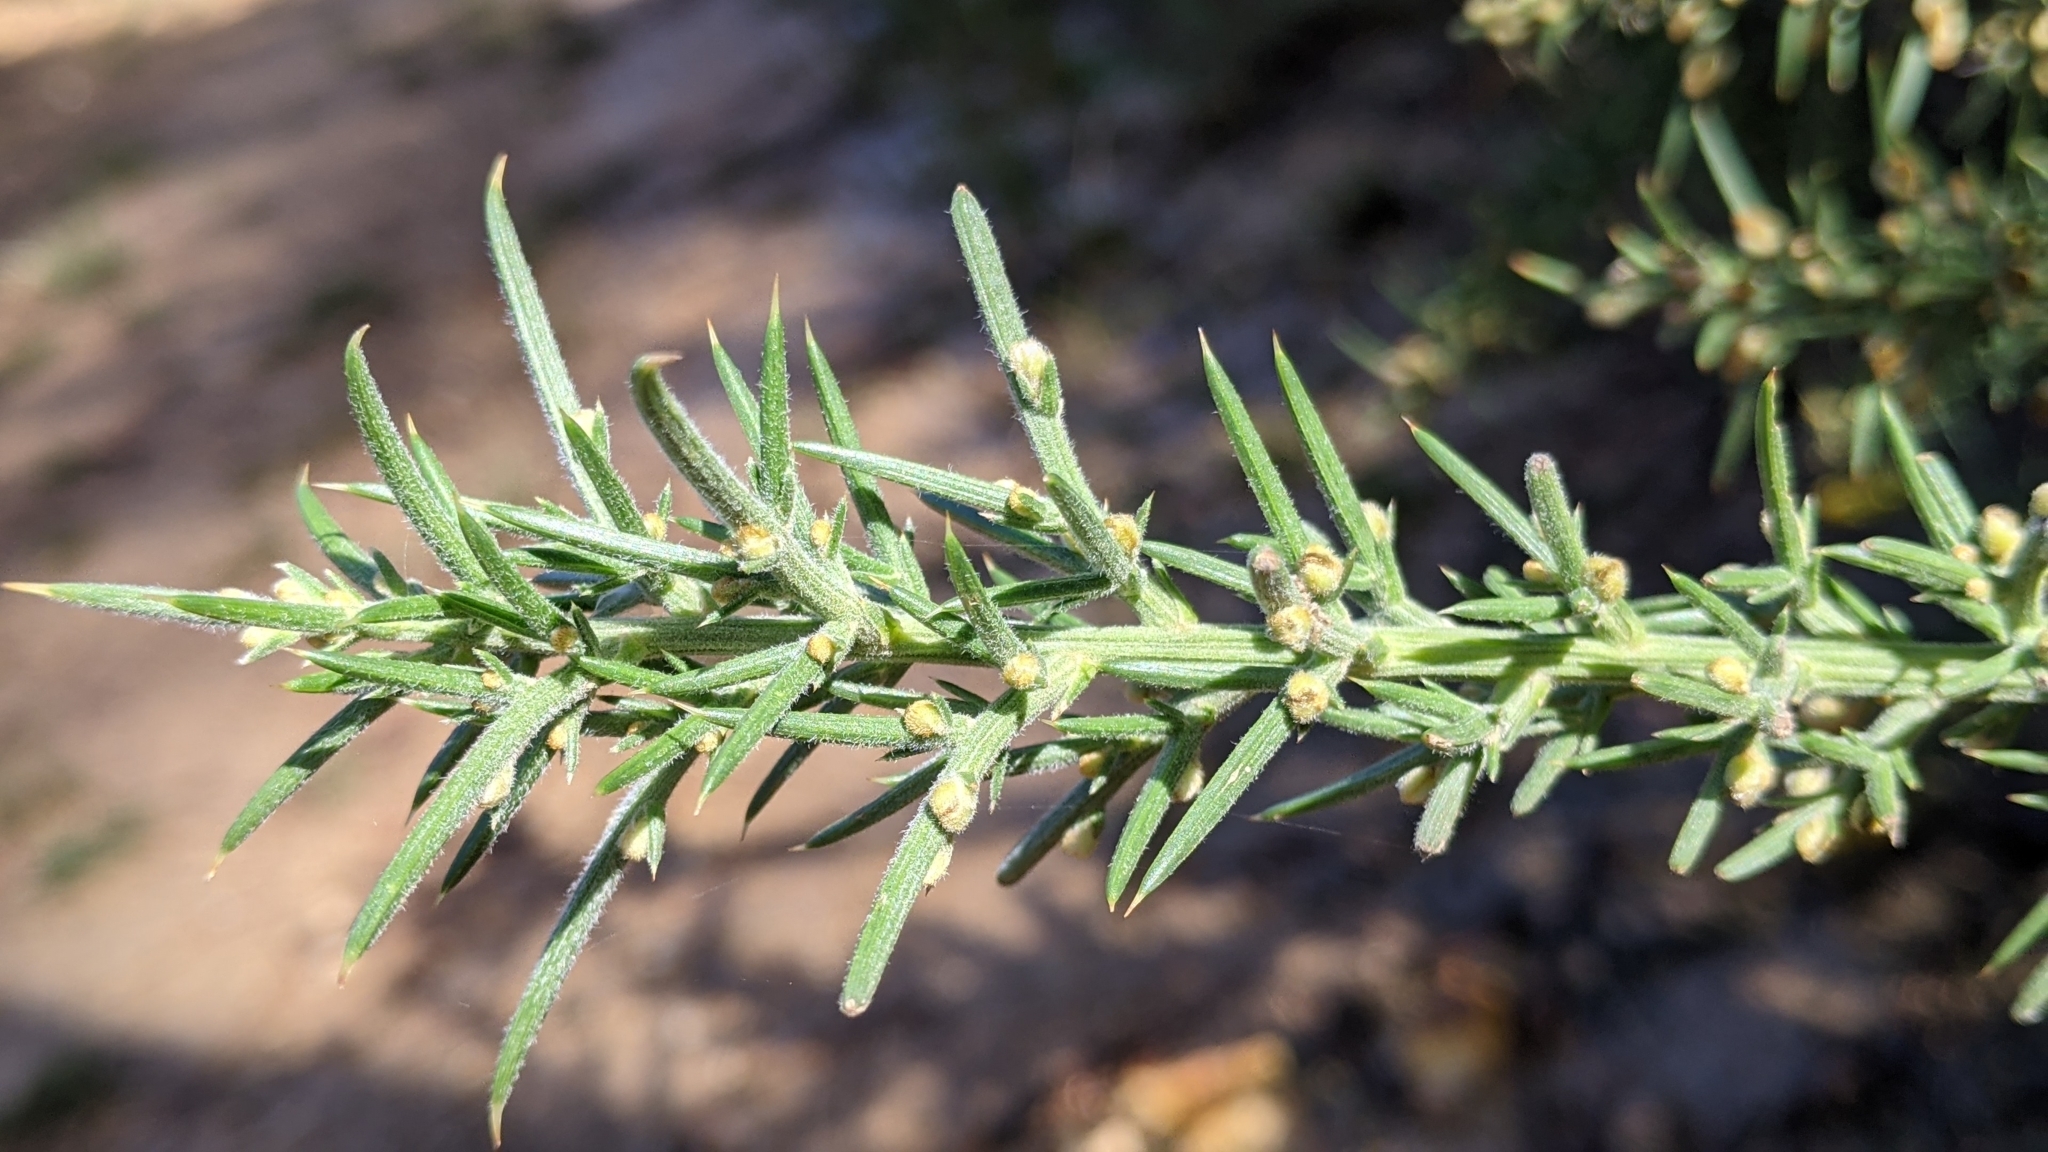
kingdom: Plantae
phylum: Tracheophyta
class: Magnoliopsida
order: Fabales
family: Fabaceae
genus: Ulex
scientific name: Ulex europaeus
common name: Common gorse
